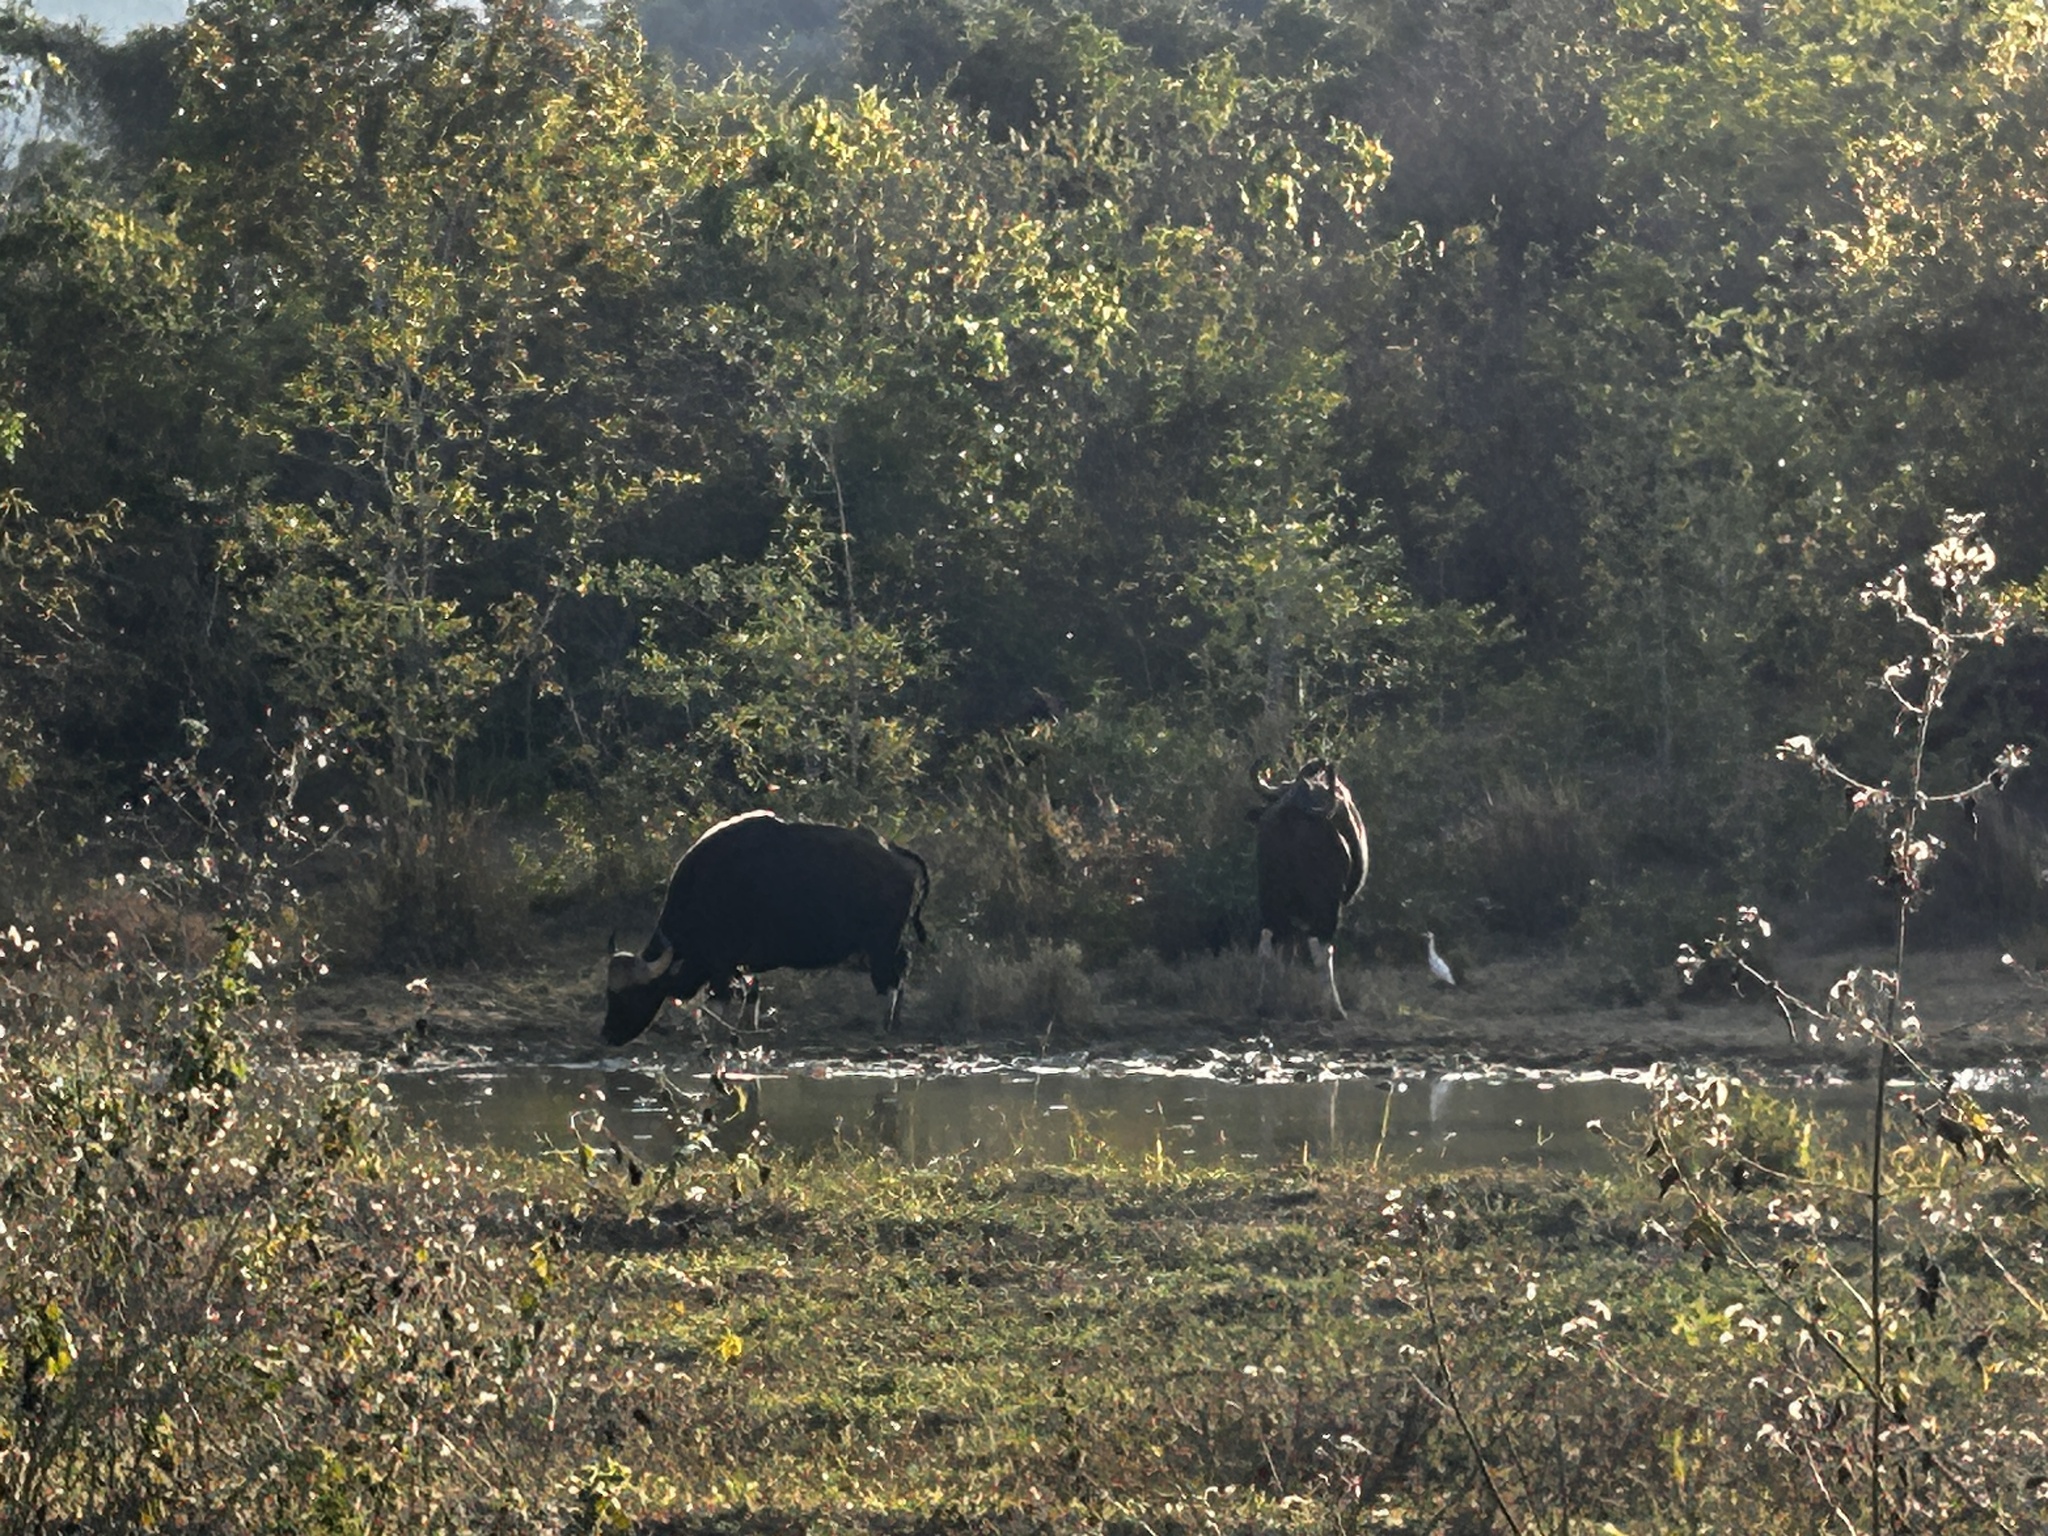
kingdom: Animalia
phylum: Chordata
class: Mammalia
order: Artiodactyla
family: Bovidae
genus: Bos
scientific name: Bos frontalis
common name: Gaur
